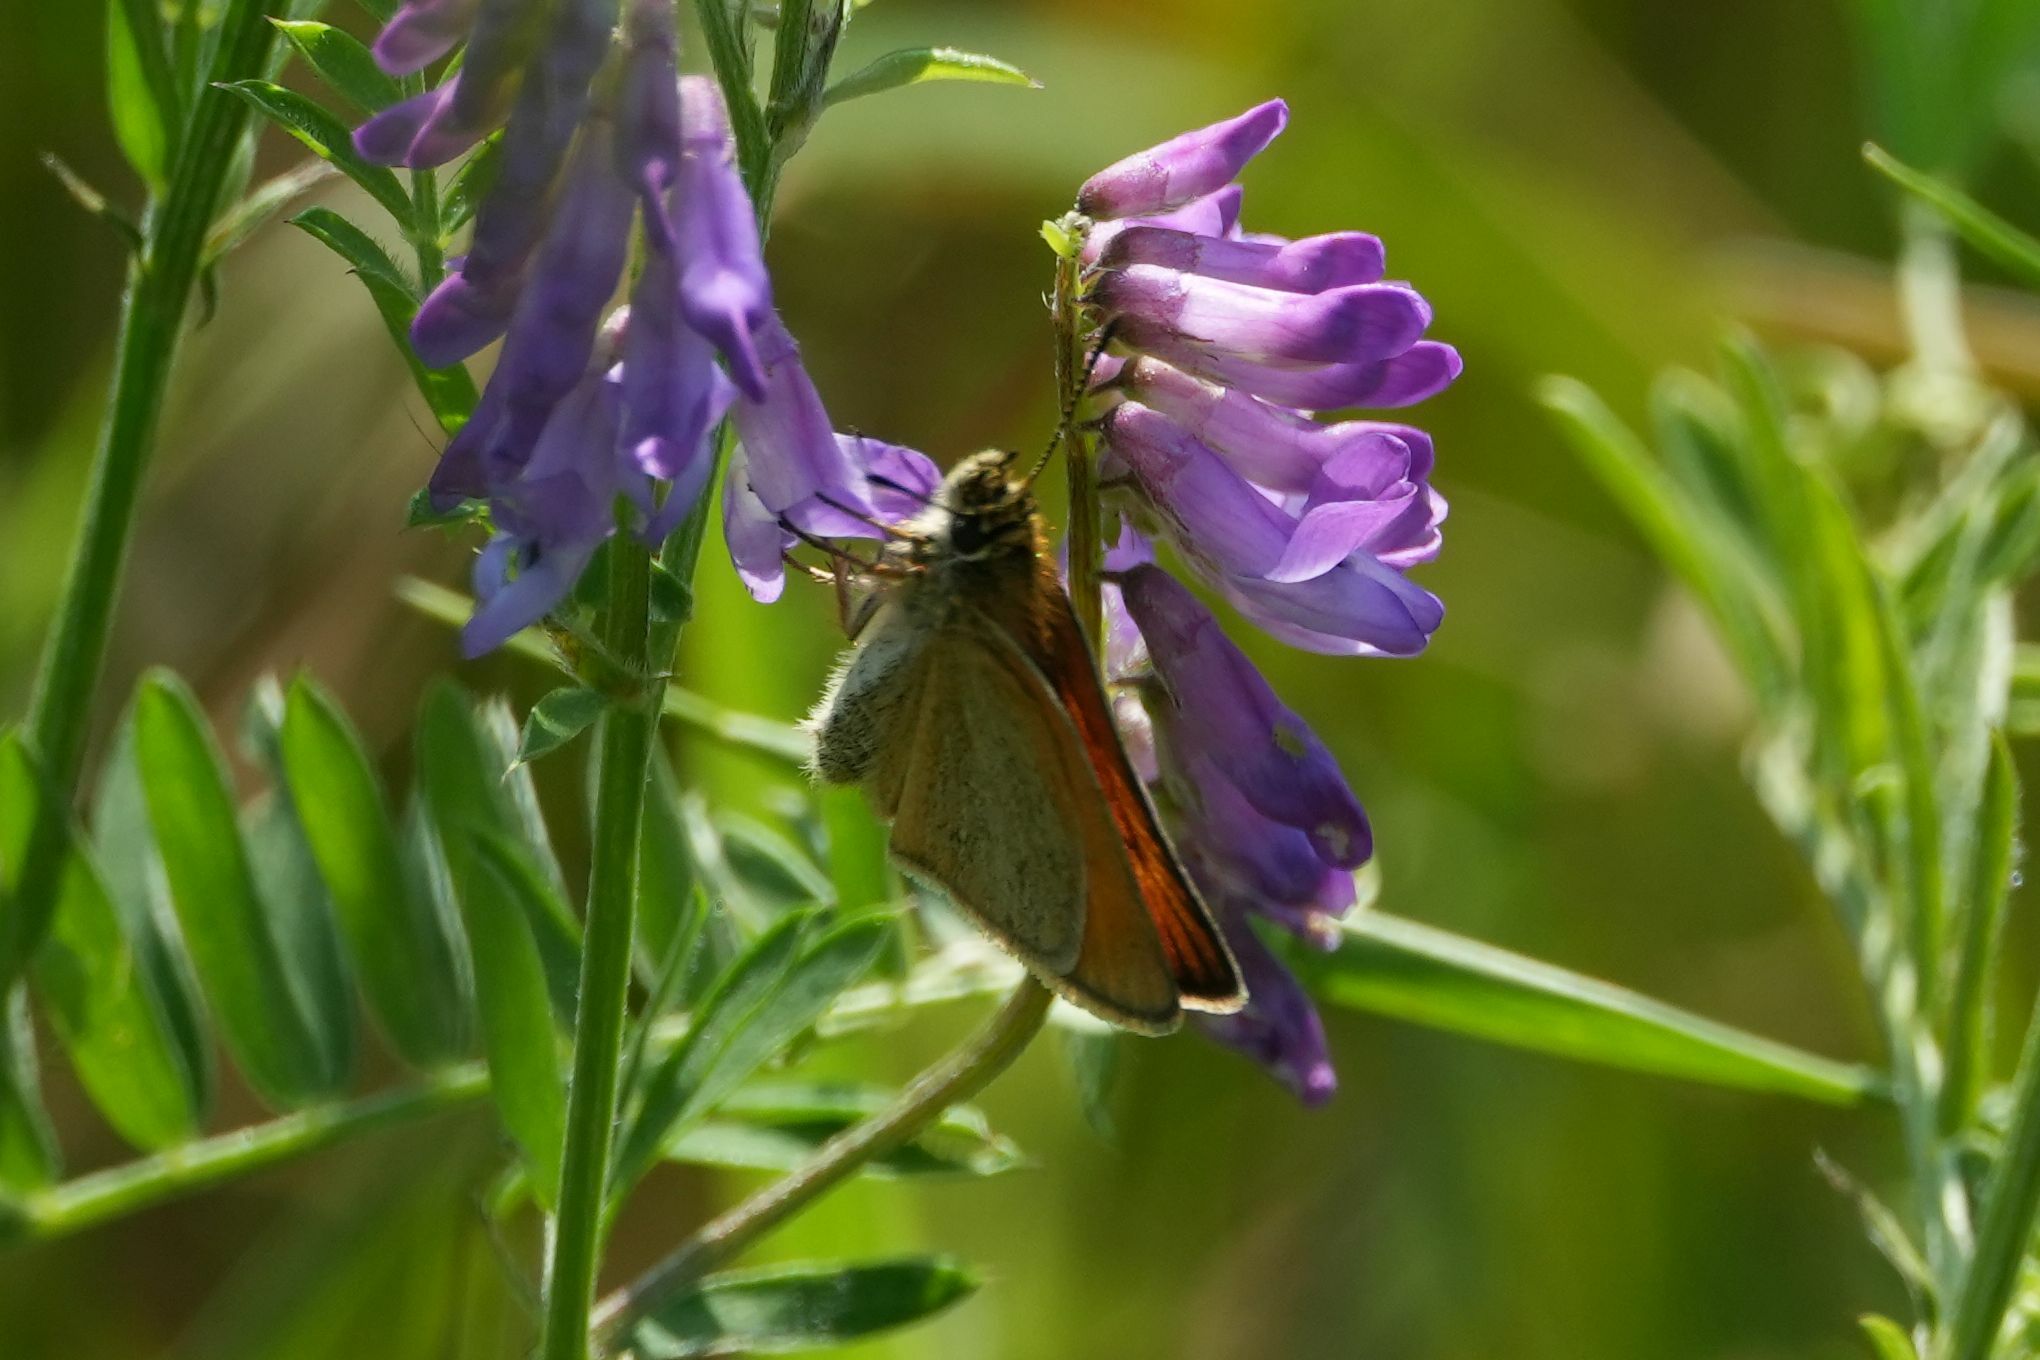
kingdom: Animalia
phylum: Arthropoda
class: Insecta
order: Lepidoptera
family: Hesperiidae
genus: Thymelicus
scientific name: Thymelicus lineola
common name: Essex skipper
